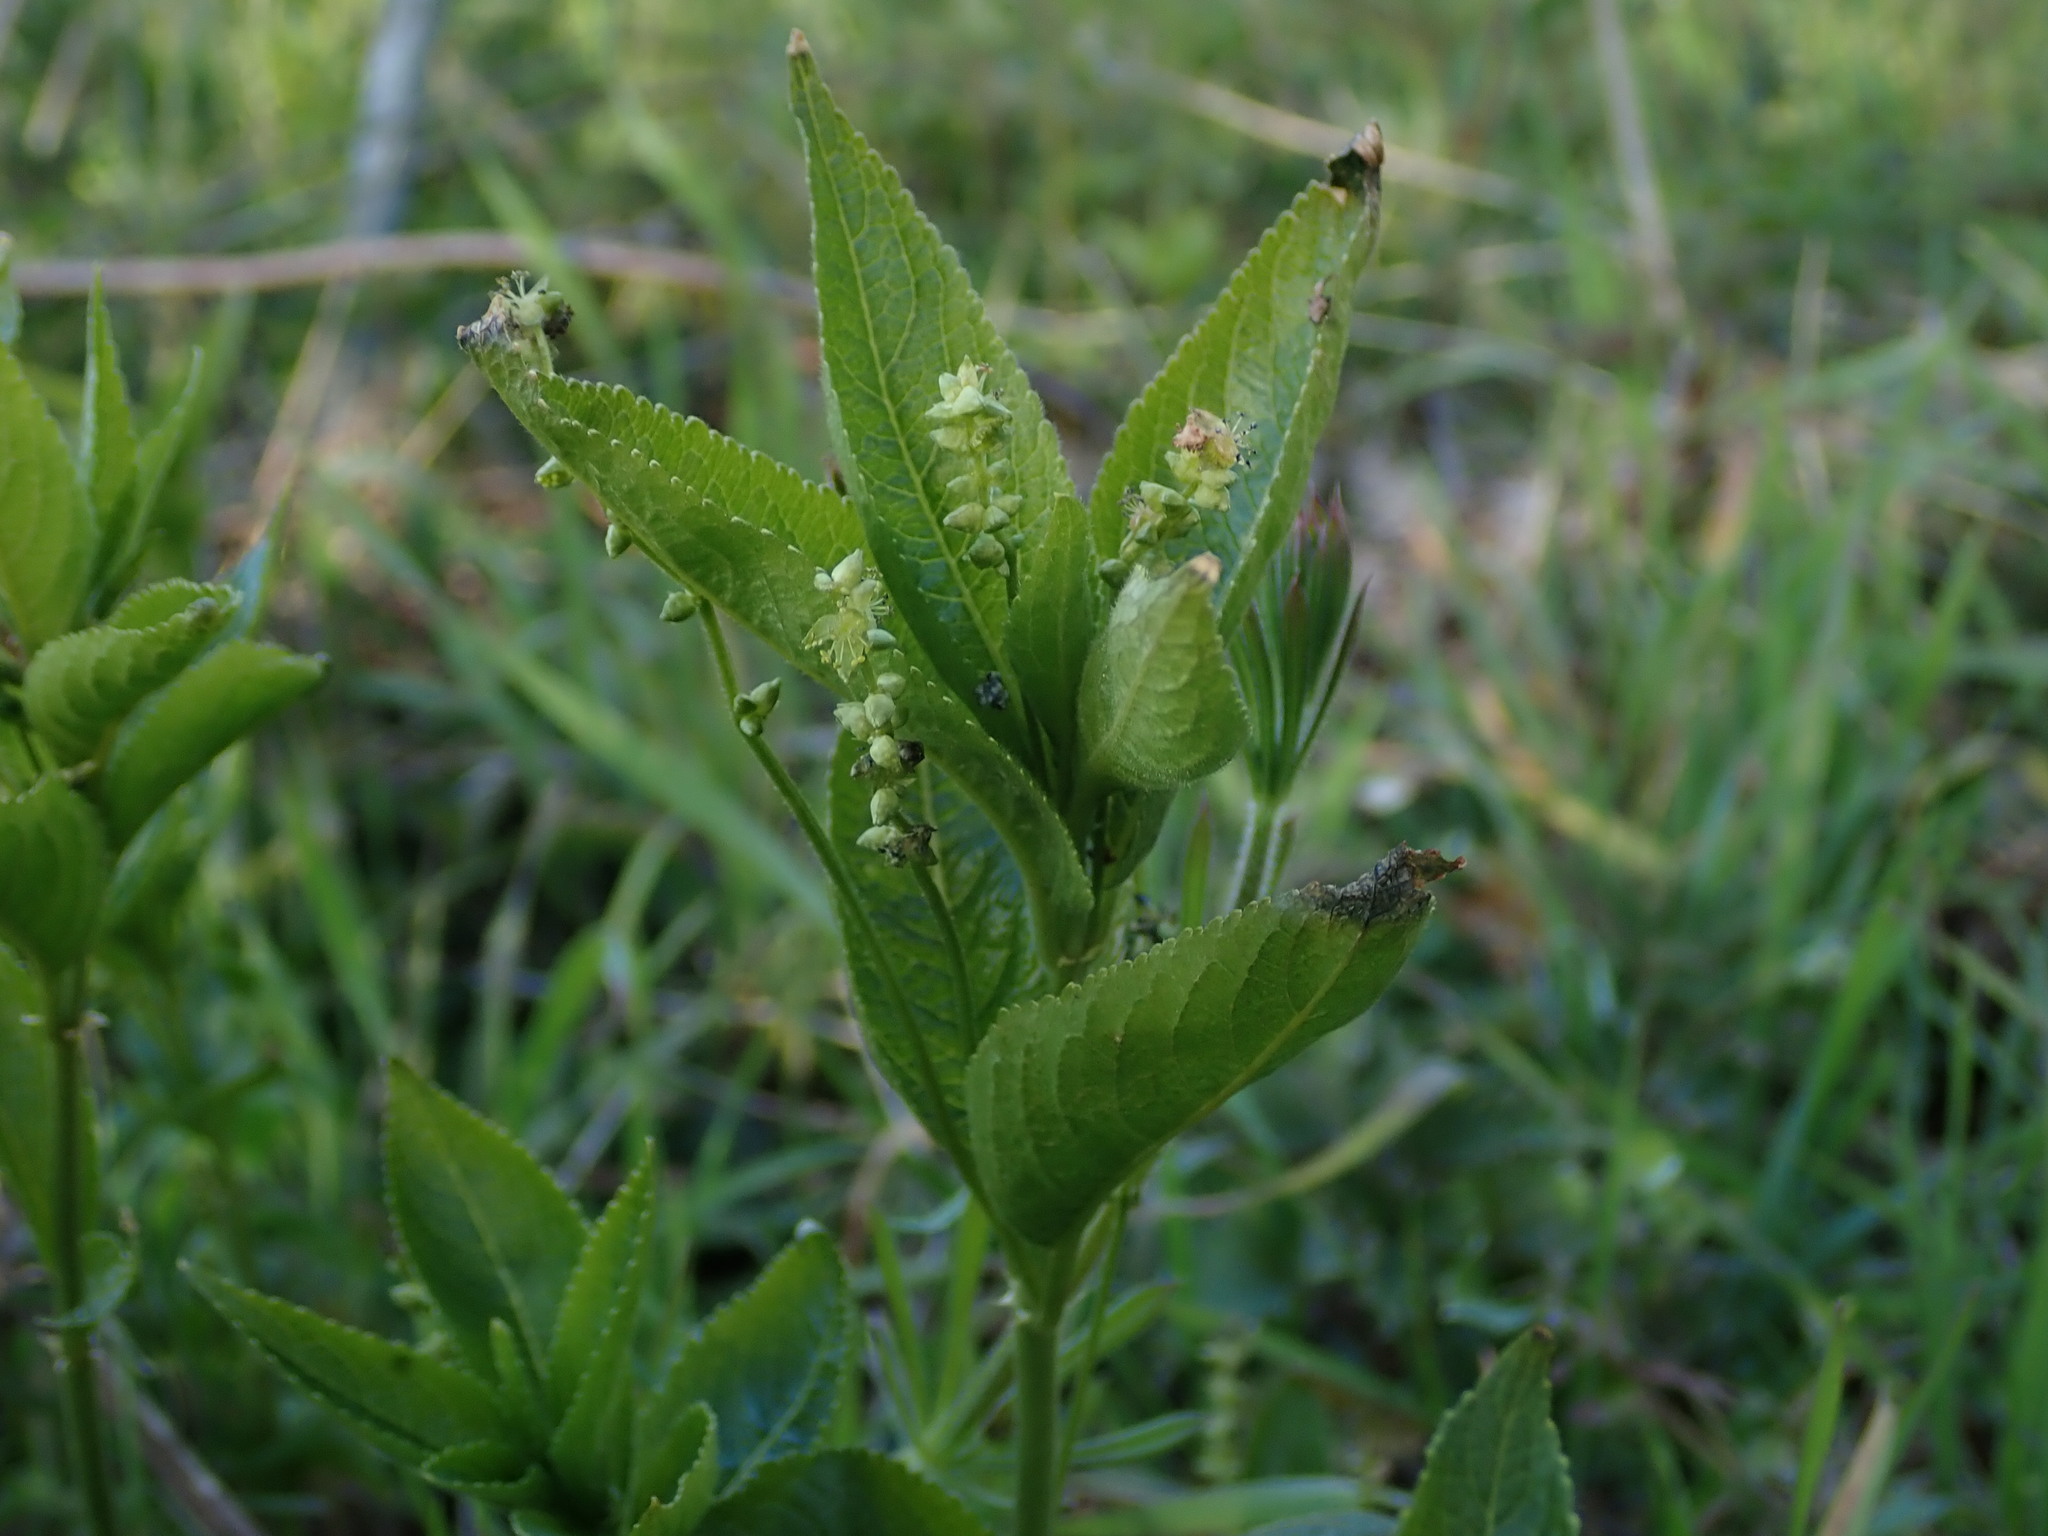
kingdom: Plantae
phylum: Tracheophyta
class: Magnoliopsida
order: Malpighiales
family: Euphorbiaceae
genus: Mercurialis
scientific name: Mercurialis perennis
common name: Dog mercury
